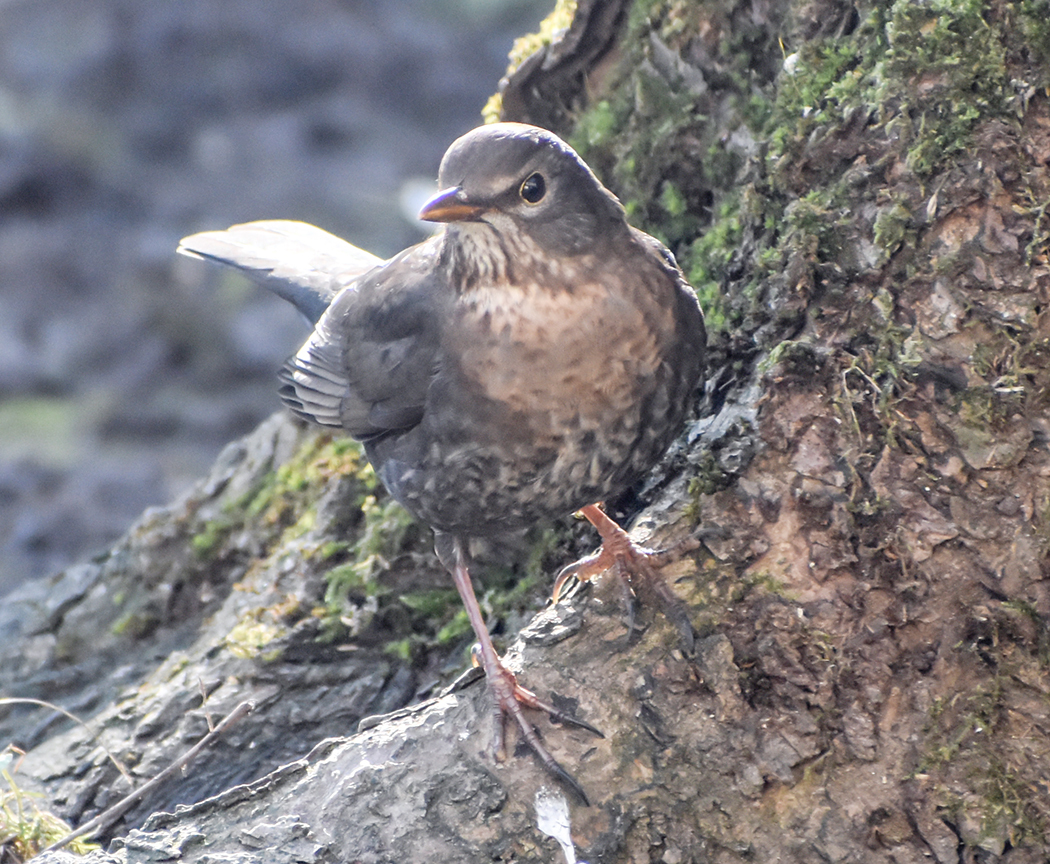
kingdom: Animalia
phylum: Chordata
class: Aves
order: Passeriformes
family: Turdidae
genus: Turdus
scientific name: Turdus merula
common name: Common blackbird
